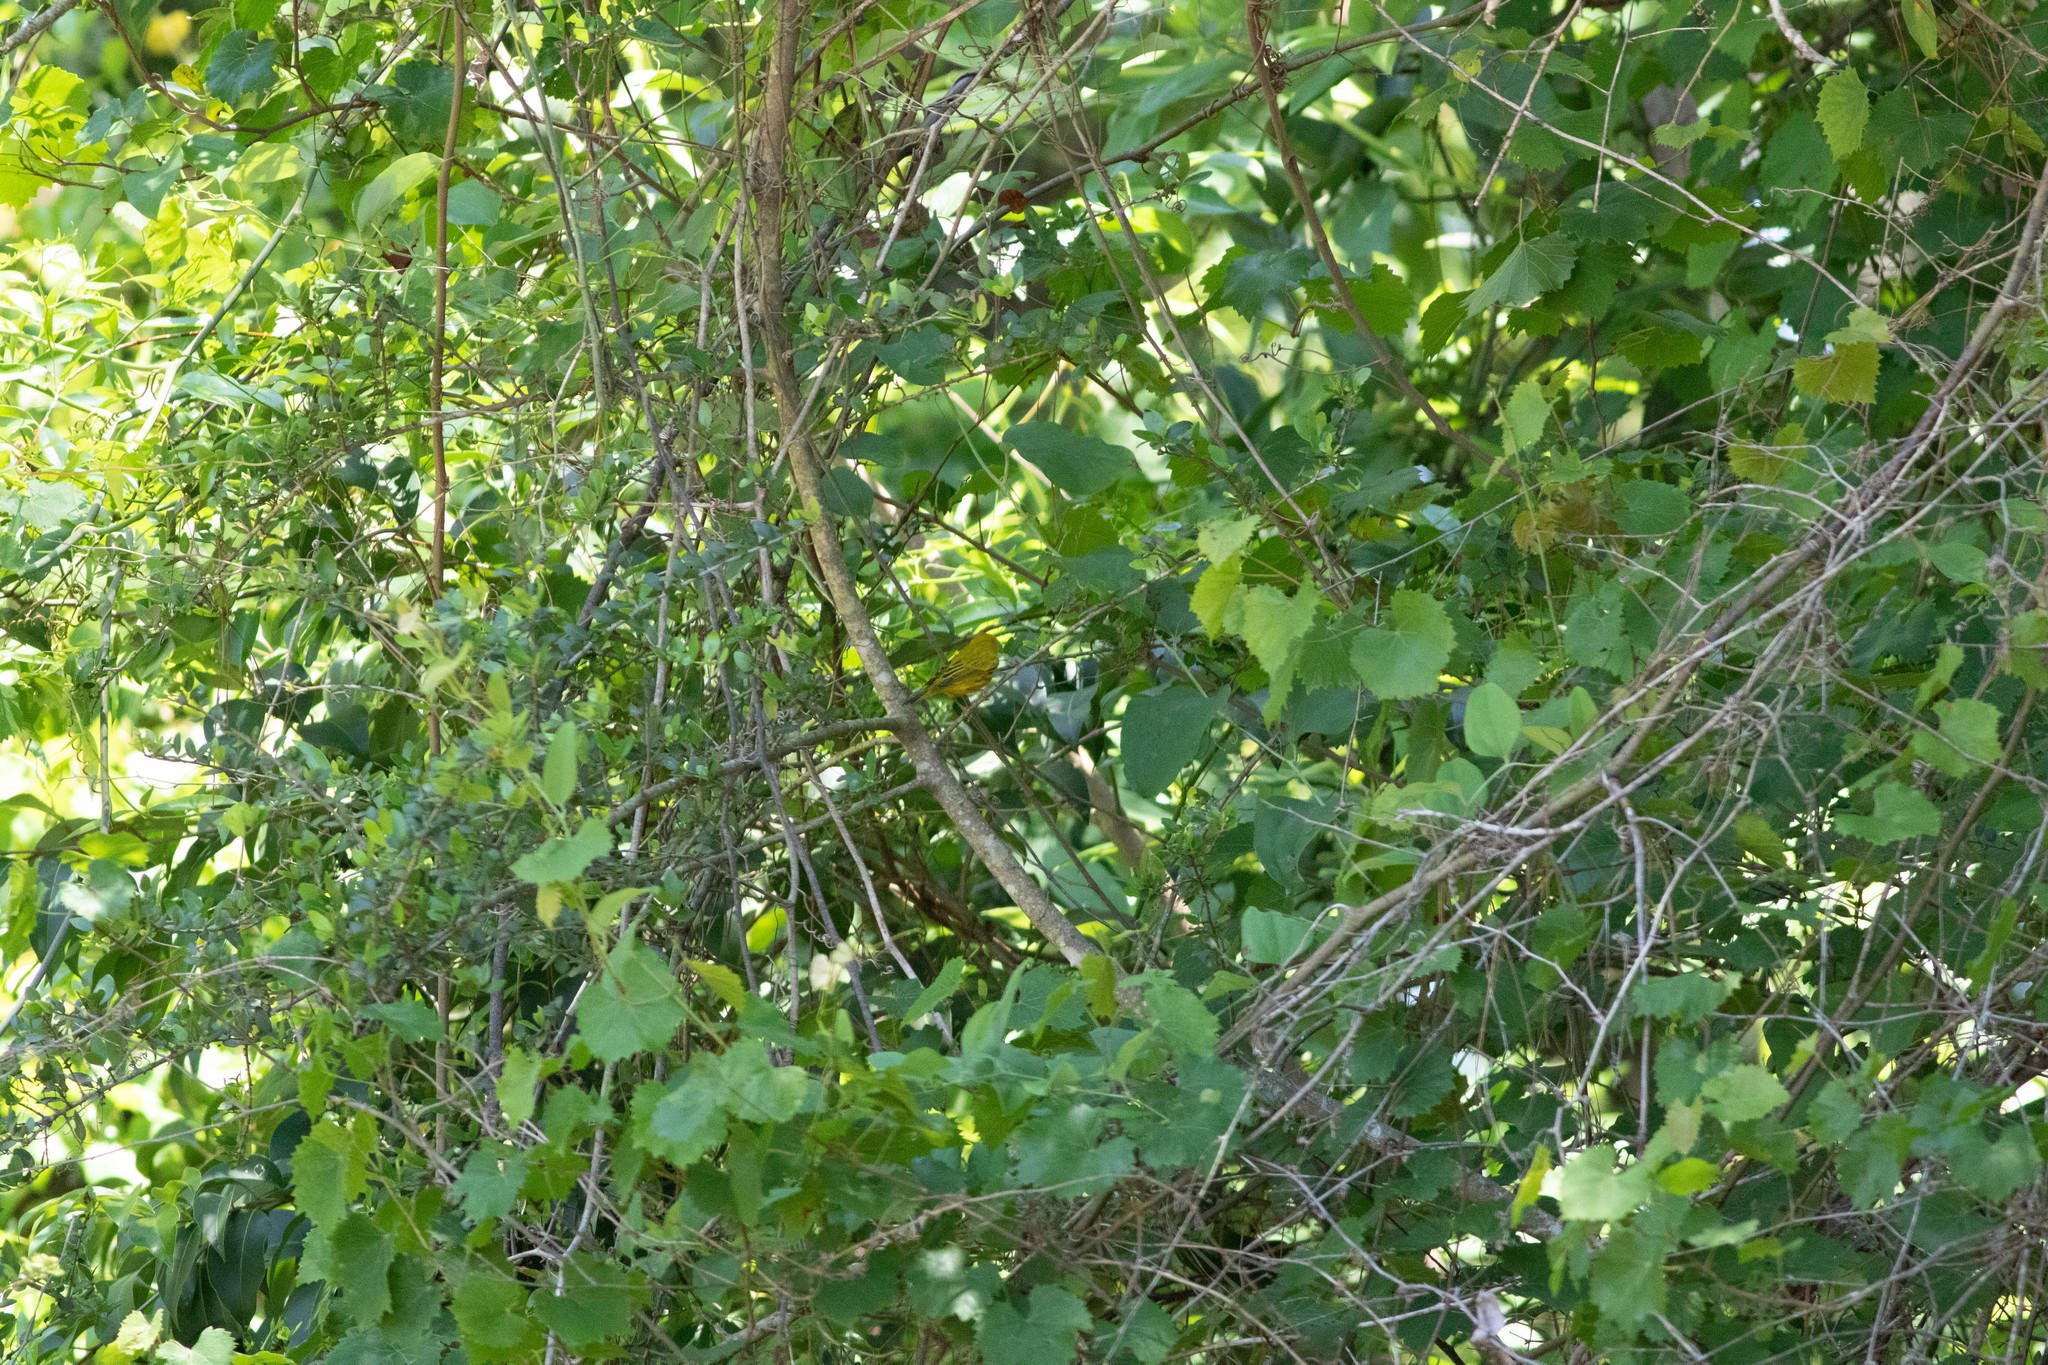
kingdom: Animalia
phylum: Chordata
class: Aves
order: Passeriformes
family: Parulidae
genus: Setophaga
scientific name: Setophaga petechia
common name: Yellow warbler
